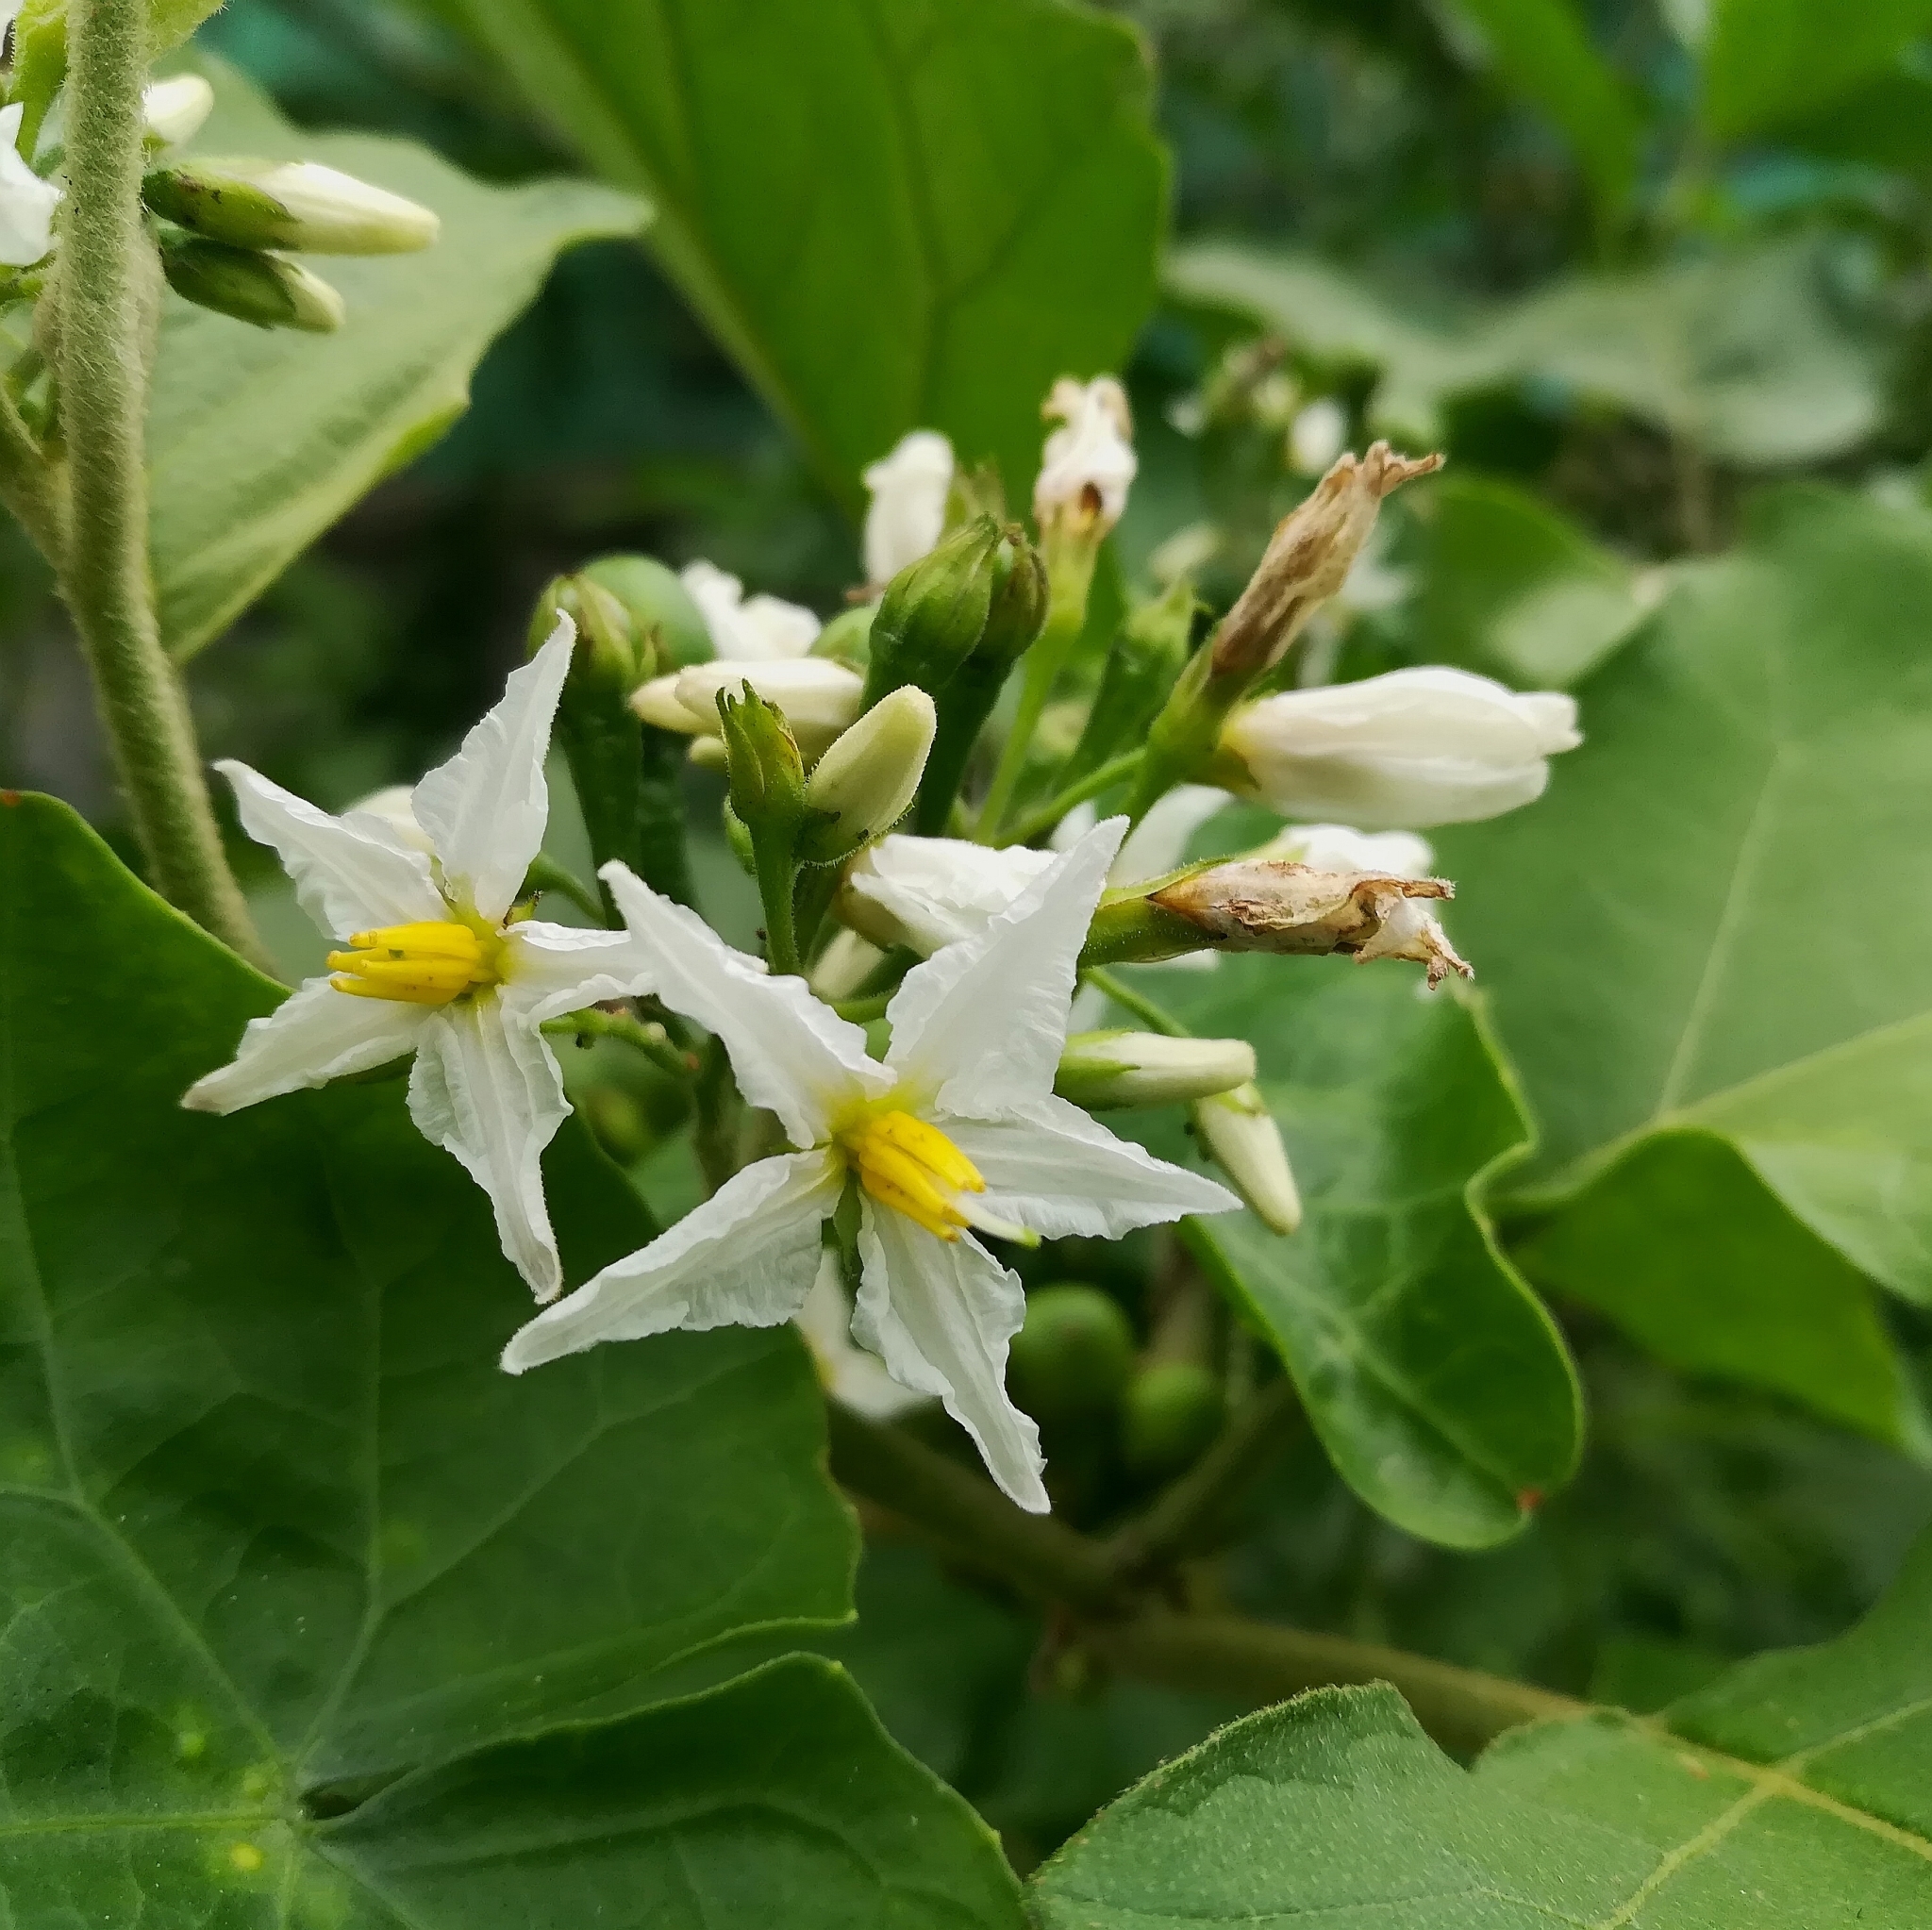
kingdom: Plantae
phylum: Tracheophyta
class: Magnoliopsida
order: Solanales
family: Solanaceae
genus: Solanum
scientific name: Solanum torvum
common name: Turkey berry
